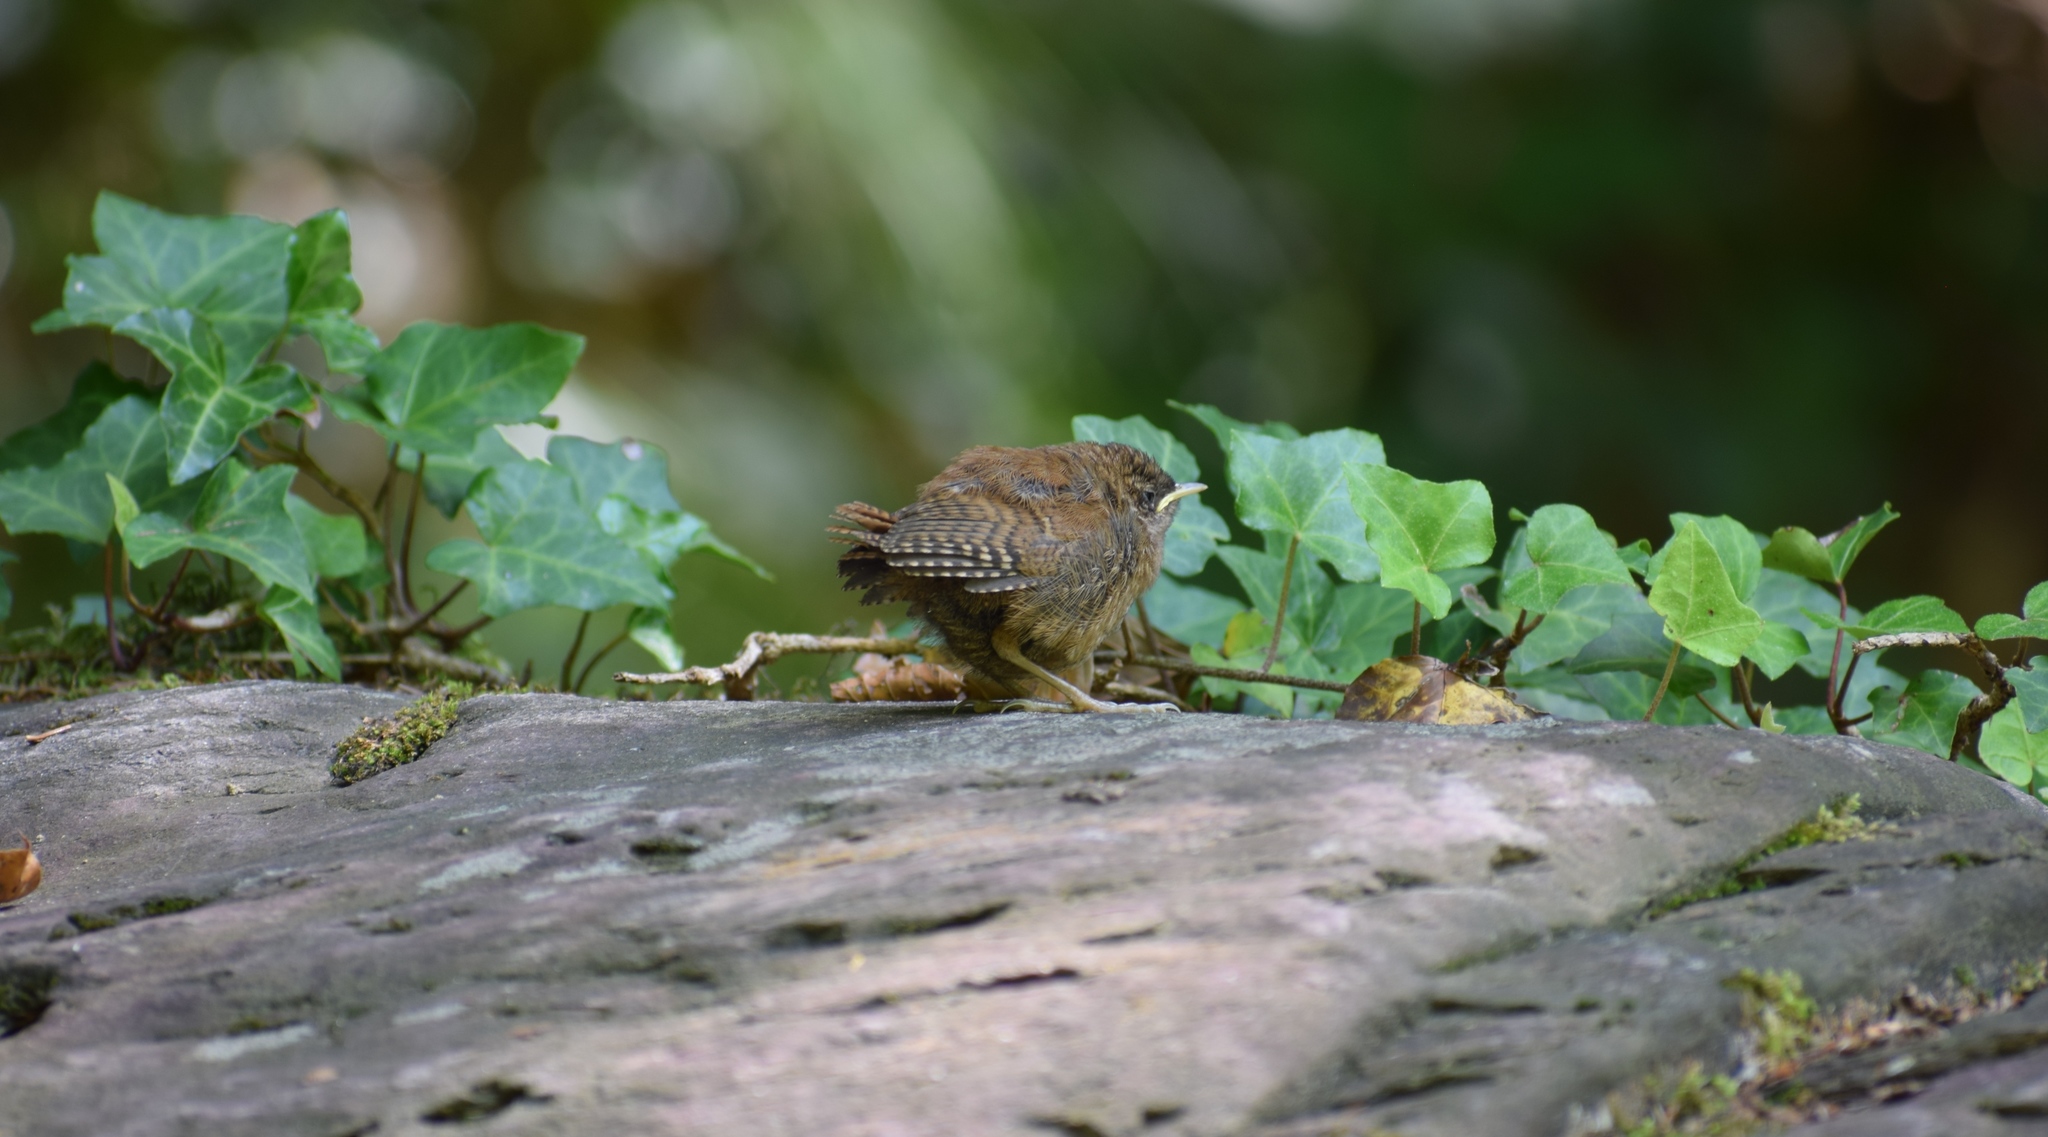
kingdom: Animalia
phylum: Chordata
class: Aves
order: Passeriformes
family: Troglodytidae
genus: Troglodytes
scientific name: Troglodytes troglodytes
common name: Eurasian wren
